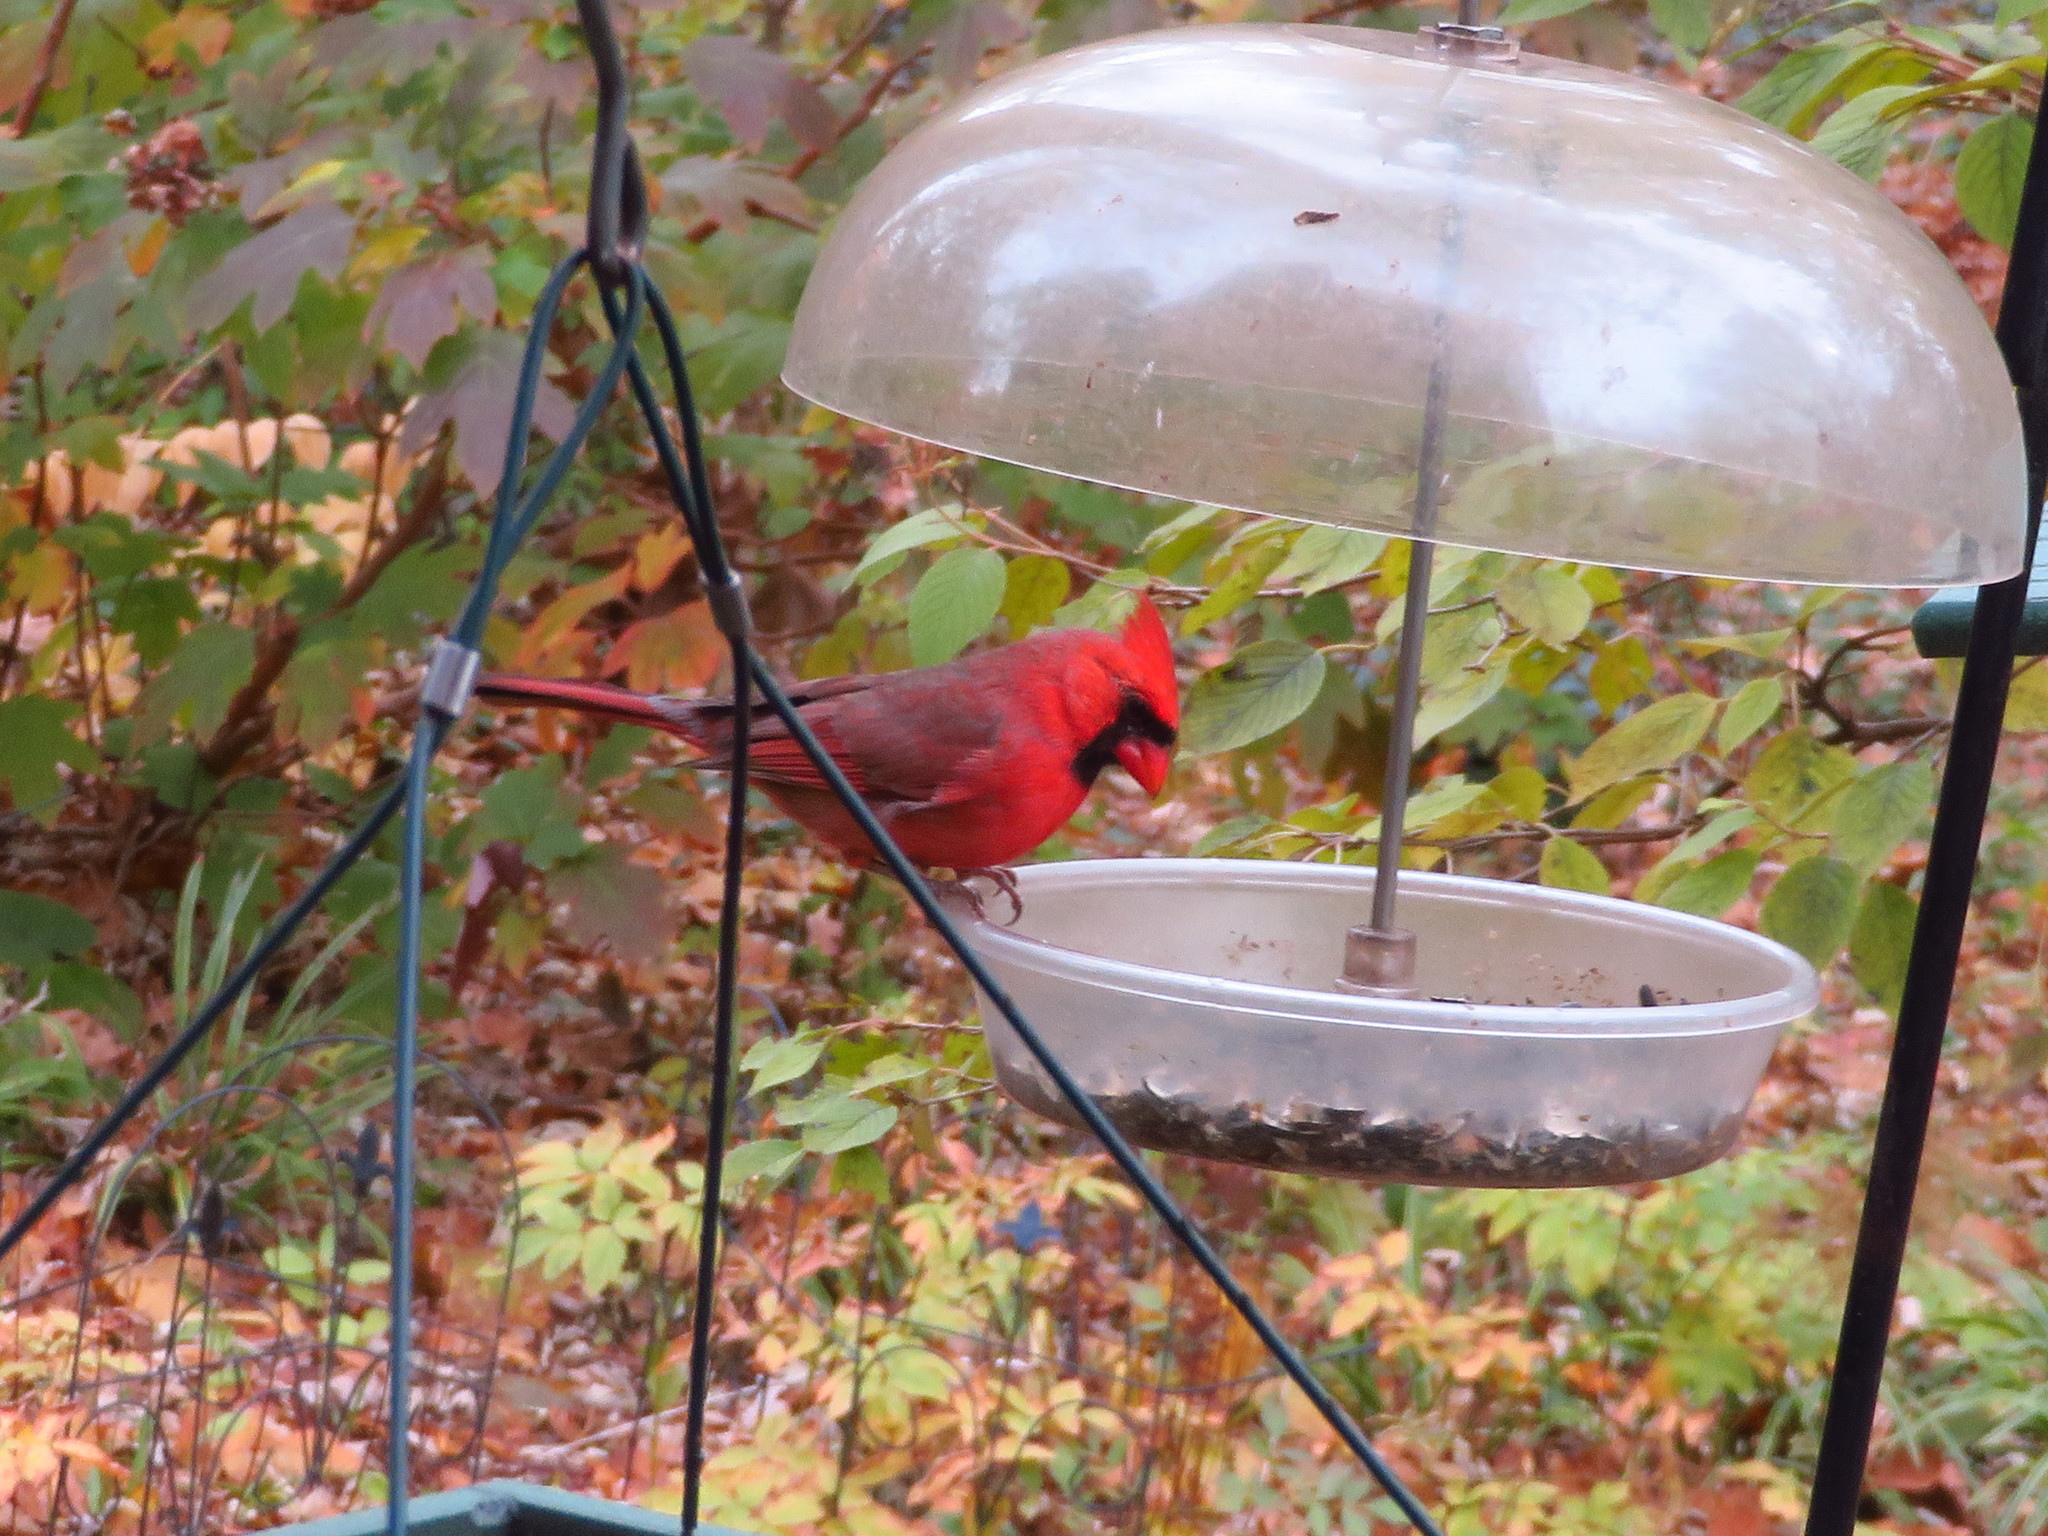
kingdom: Animalia
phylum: Chordata
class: Aves
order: Passeriformes
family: Cardinalidae
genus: Cardinalis
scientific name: Cardinalis cardinalis
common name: Northern cardinal
